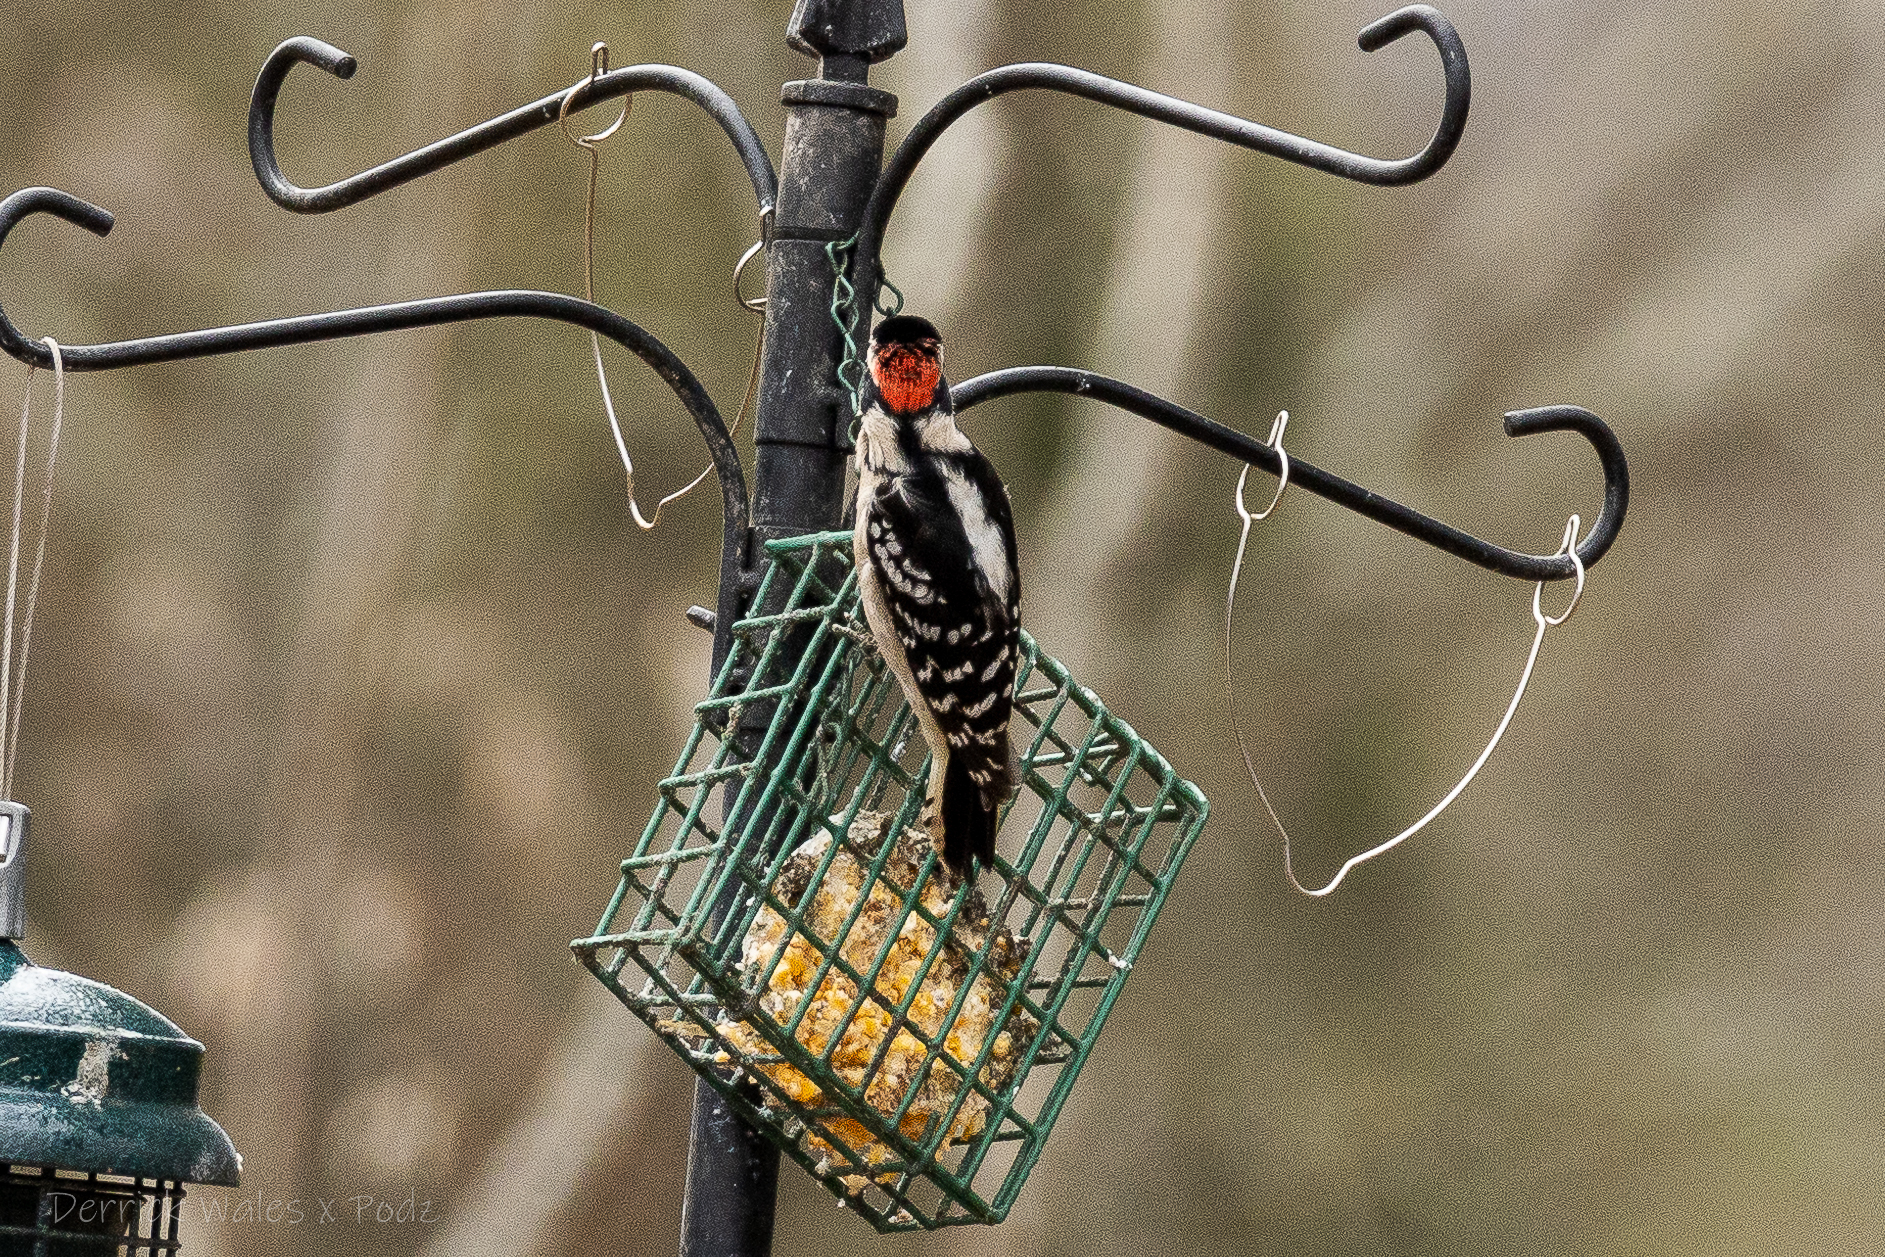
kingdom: Animalia
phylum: Chordata
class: Aves
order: Piciformes
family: Picidae
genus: Dryobates
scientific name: Dryobates pubescens
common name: Downy woodpecker
